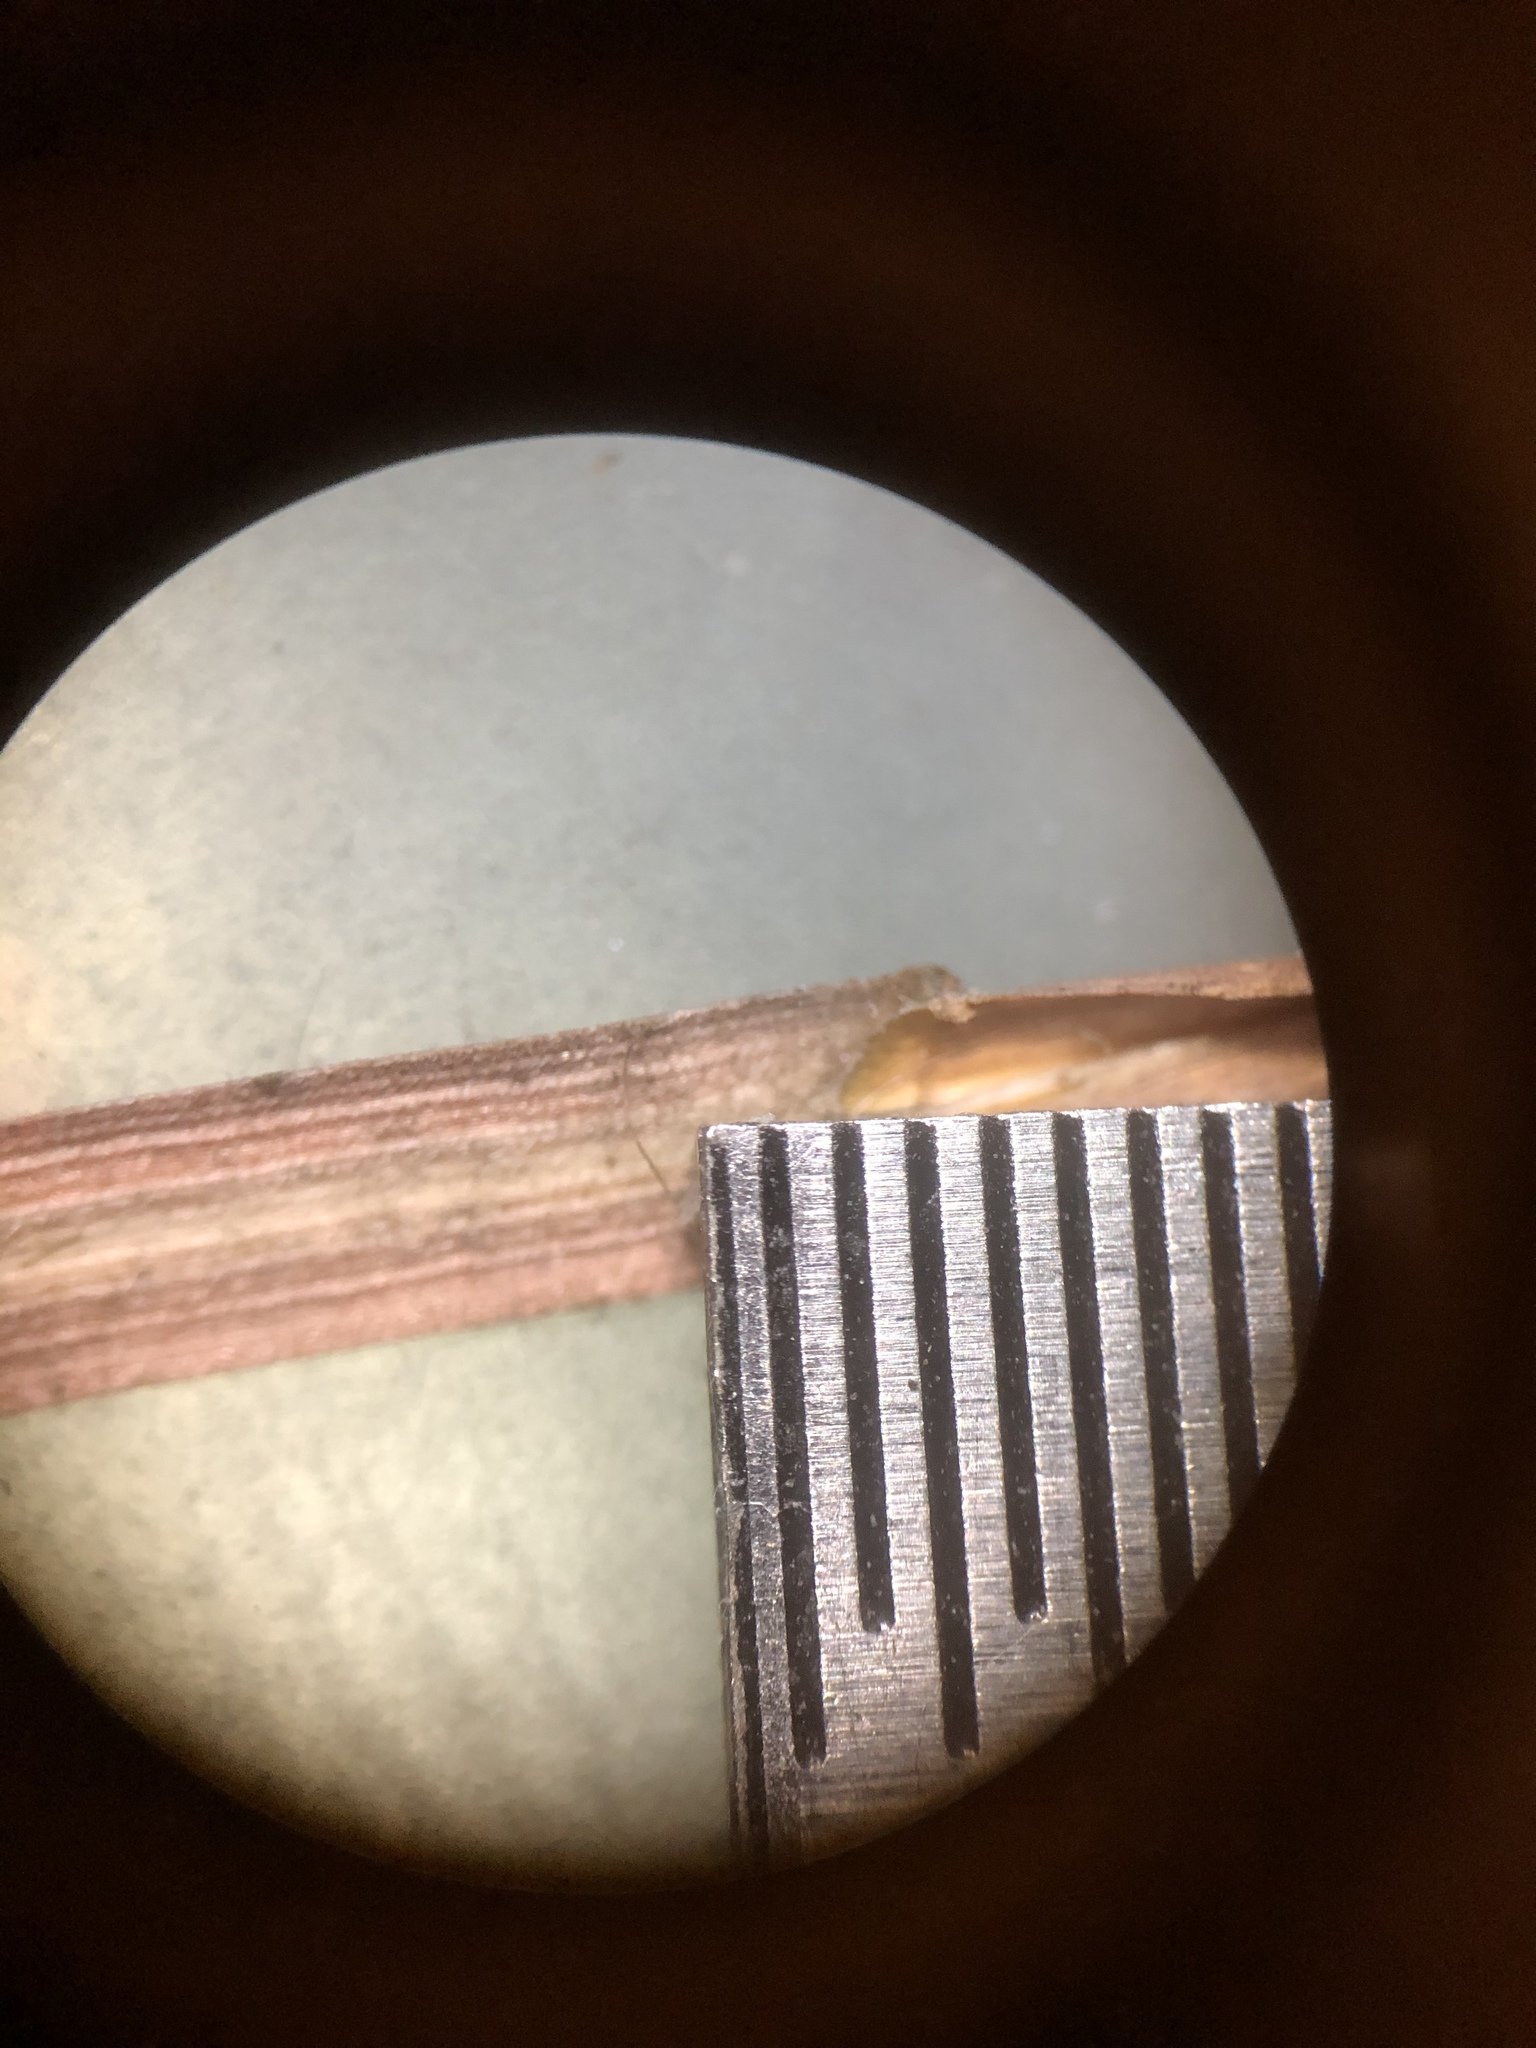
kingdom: Plantae
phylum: Tracheophyta
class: Liliopsida
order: Poales
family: Poaceae
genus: Andropogon
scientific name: Andropogon tracyi
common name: Tracy's bluestem
